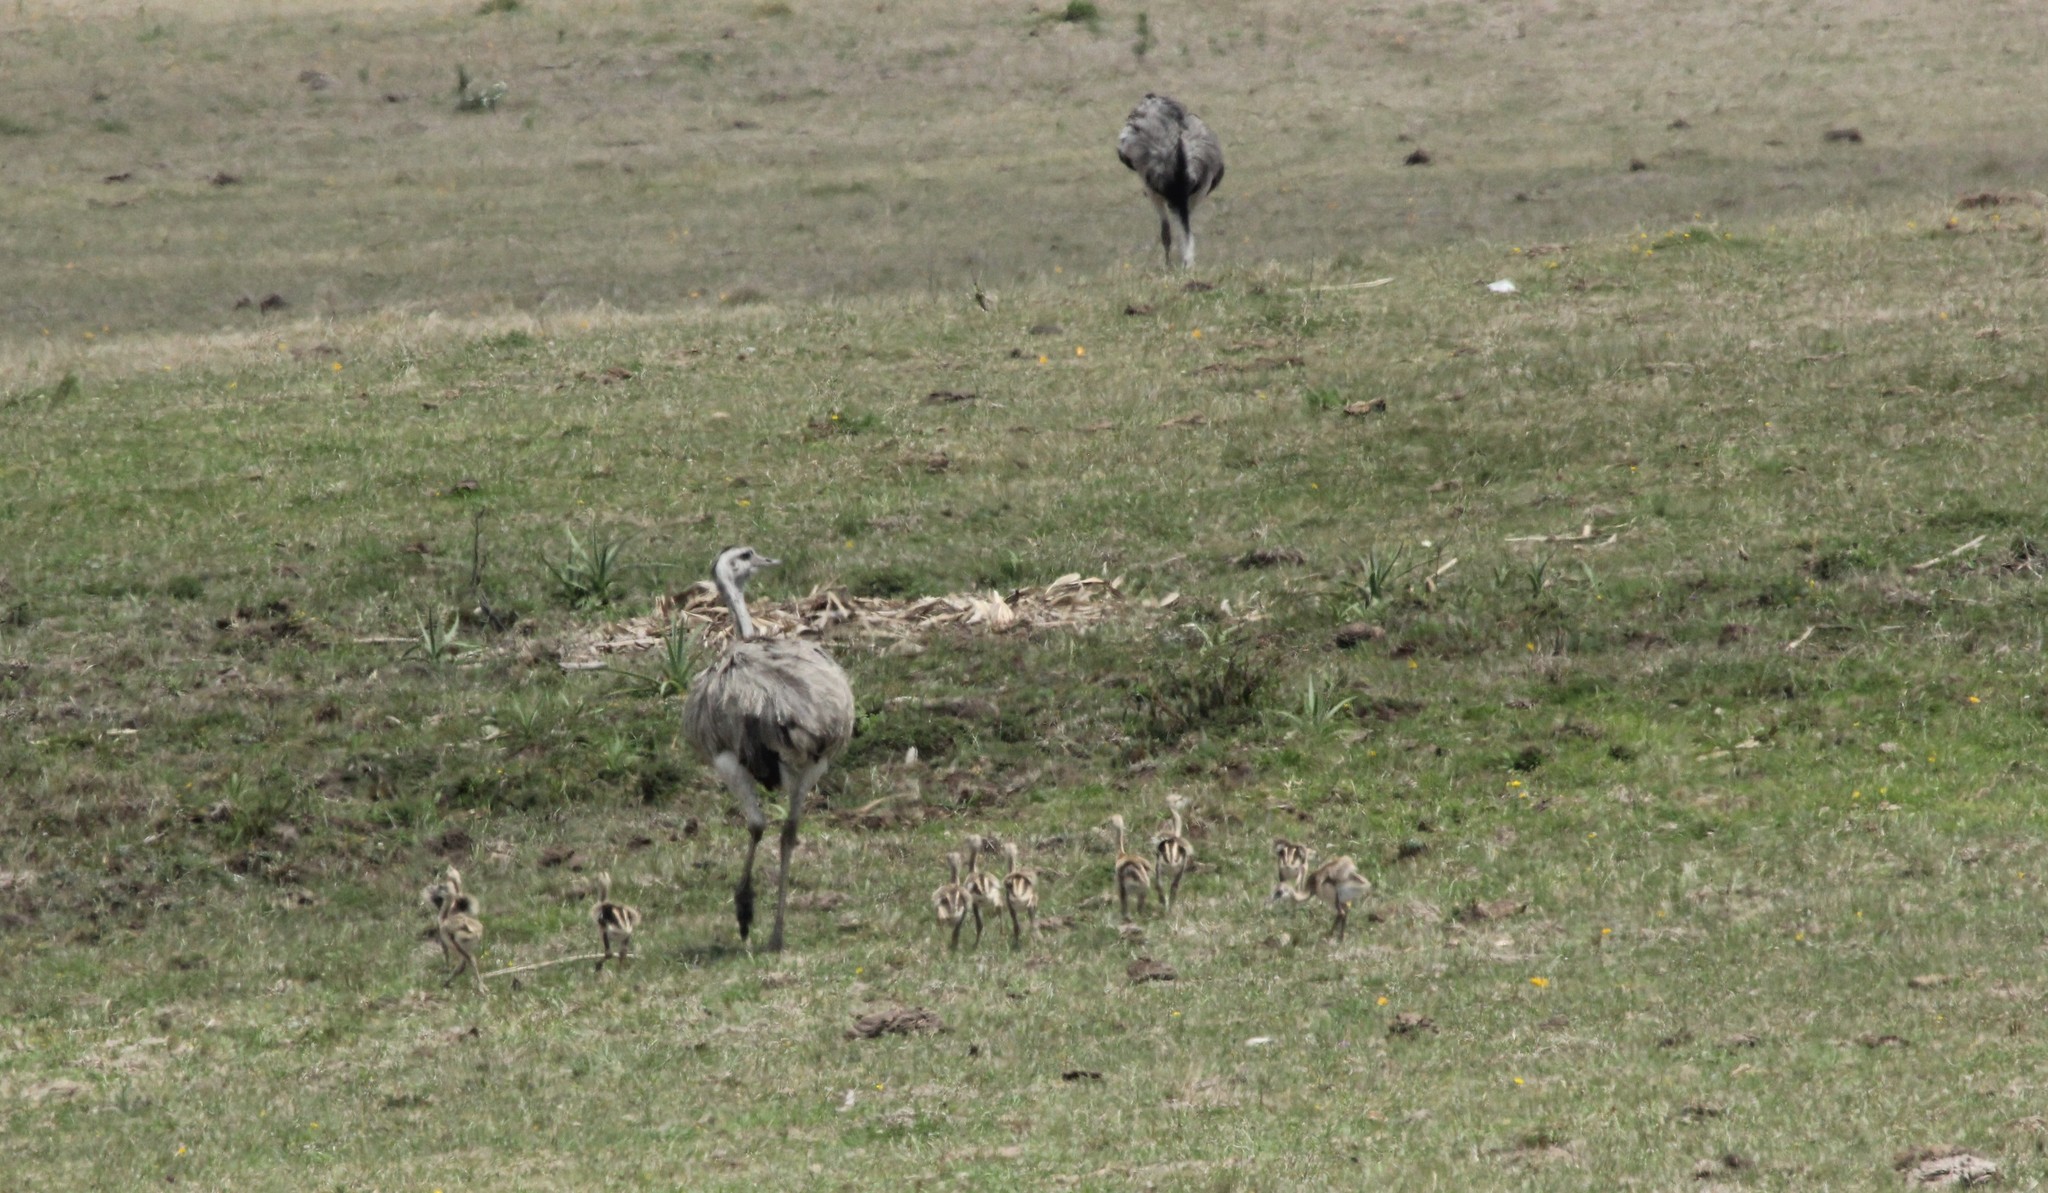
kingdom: Animalia
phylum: Chordata
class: Aves
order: Rheiformes
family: Rheidae
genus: Rhea
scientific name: Rhea americana
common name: Greater rhea
